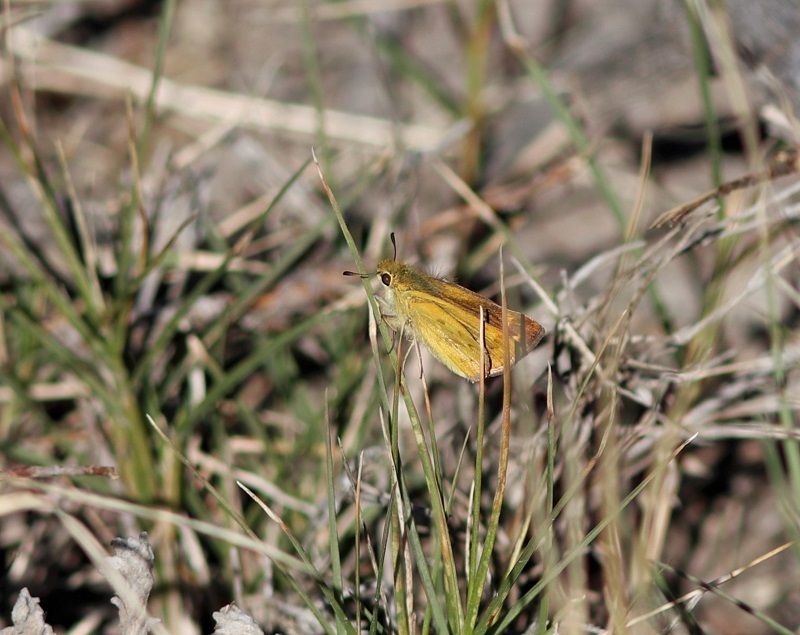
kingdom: Animalia
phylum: Arthropoda
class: Insecta
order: Hymenoptera
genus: Afrogenes
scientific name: Afrogenes
